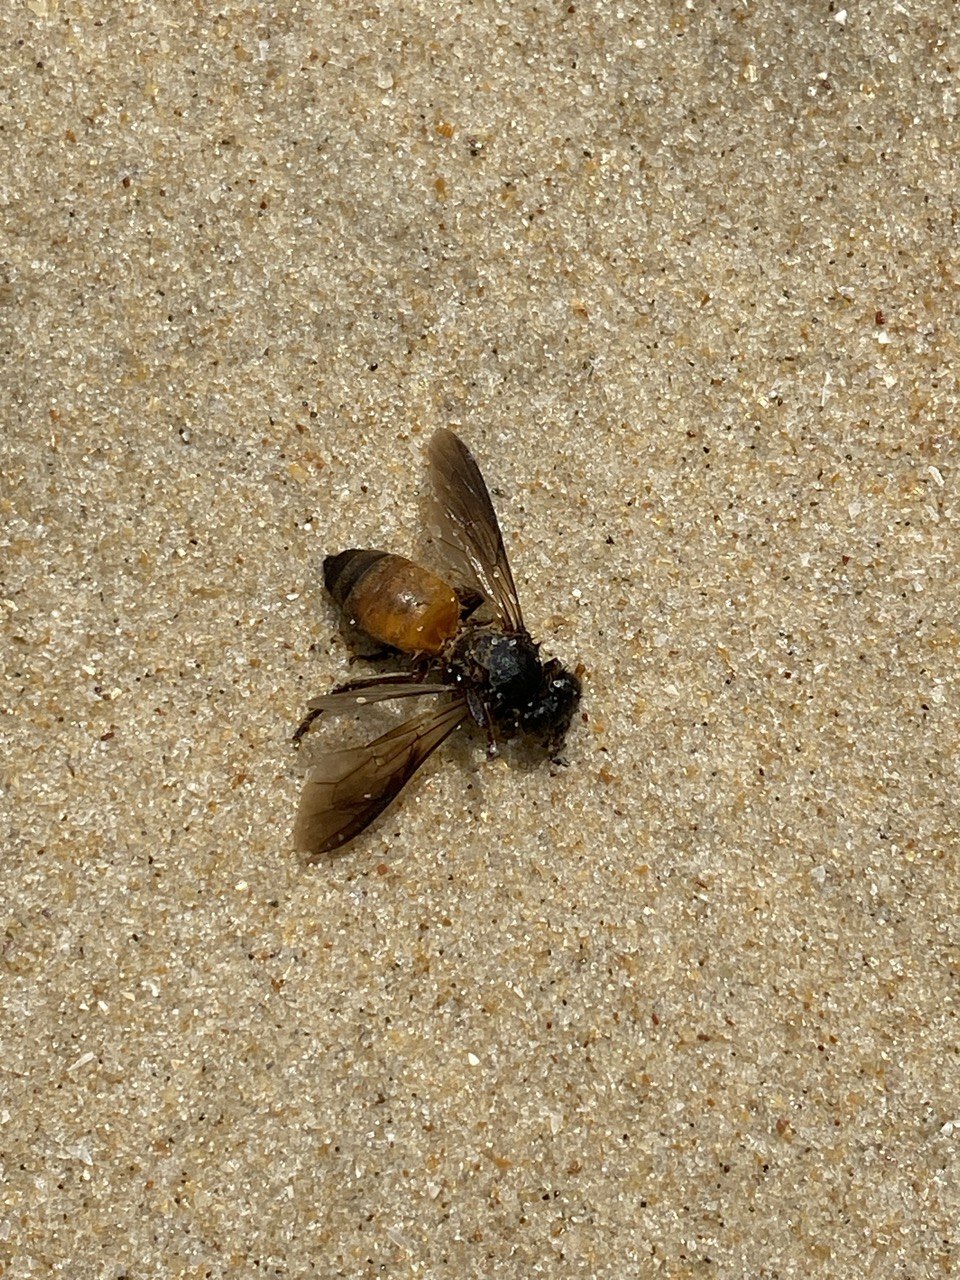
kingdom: Animalia
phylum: Arthropoda
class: Insecta
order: Hymenoptera
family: Apidae
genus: Apis
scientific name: Apis dorsata
